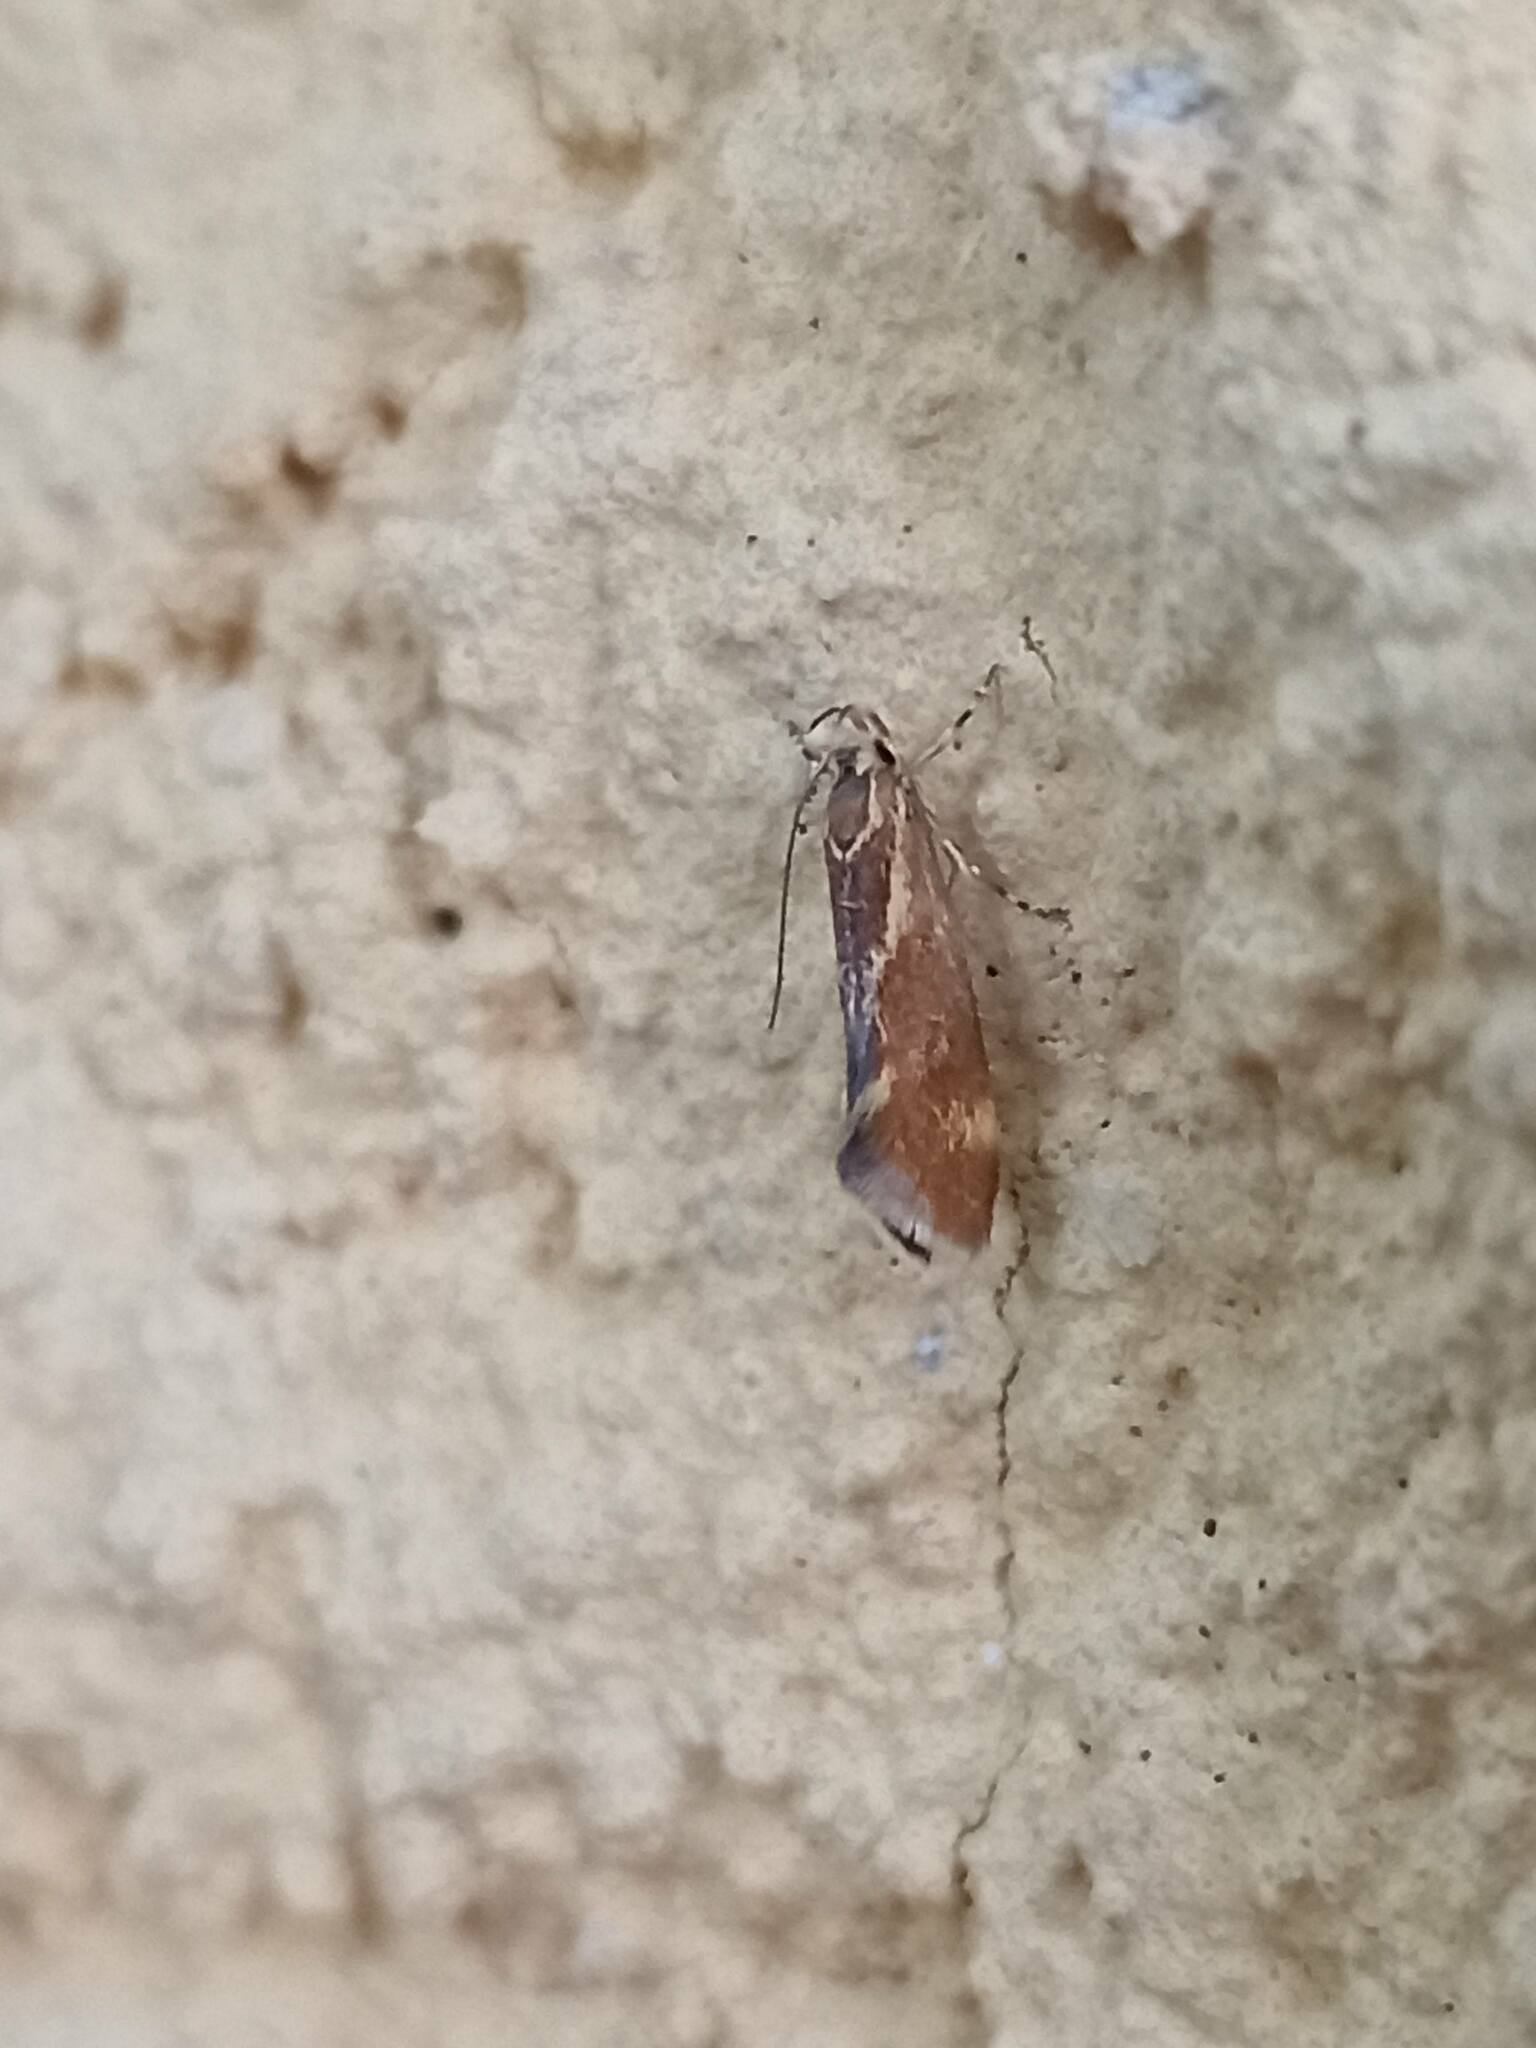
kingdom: Animalia
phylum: Arthropoda
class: Insecta
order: Lepidoptera
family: Oecophoridae
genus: Borkhausenia
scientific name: Borkhausenia italica
